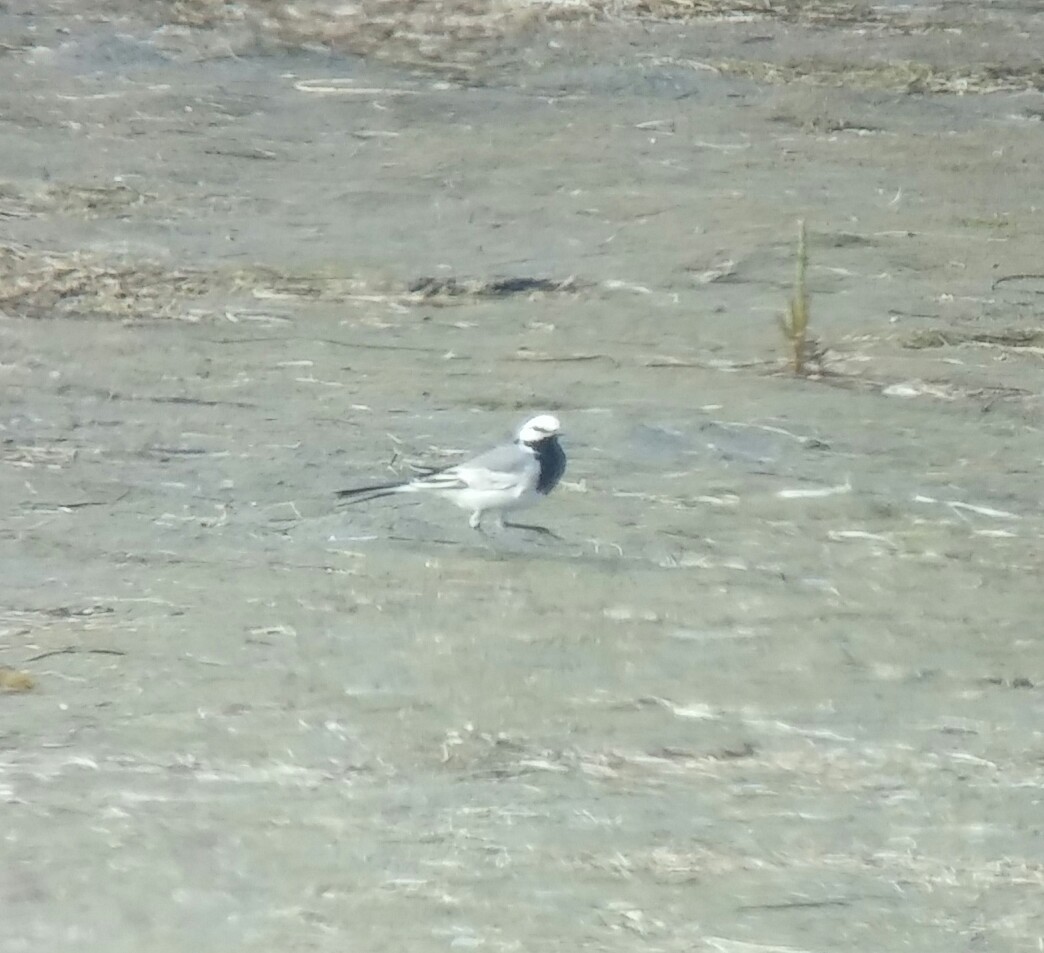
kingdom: Animalia
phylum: Chordata
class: Aves
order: Passeriformes
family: Motacillidae
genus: Motacilla
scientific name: Motacilla alba
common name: White wagtail
